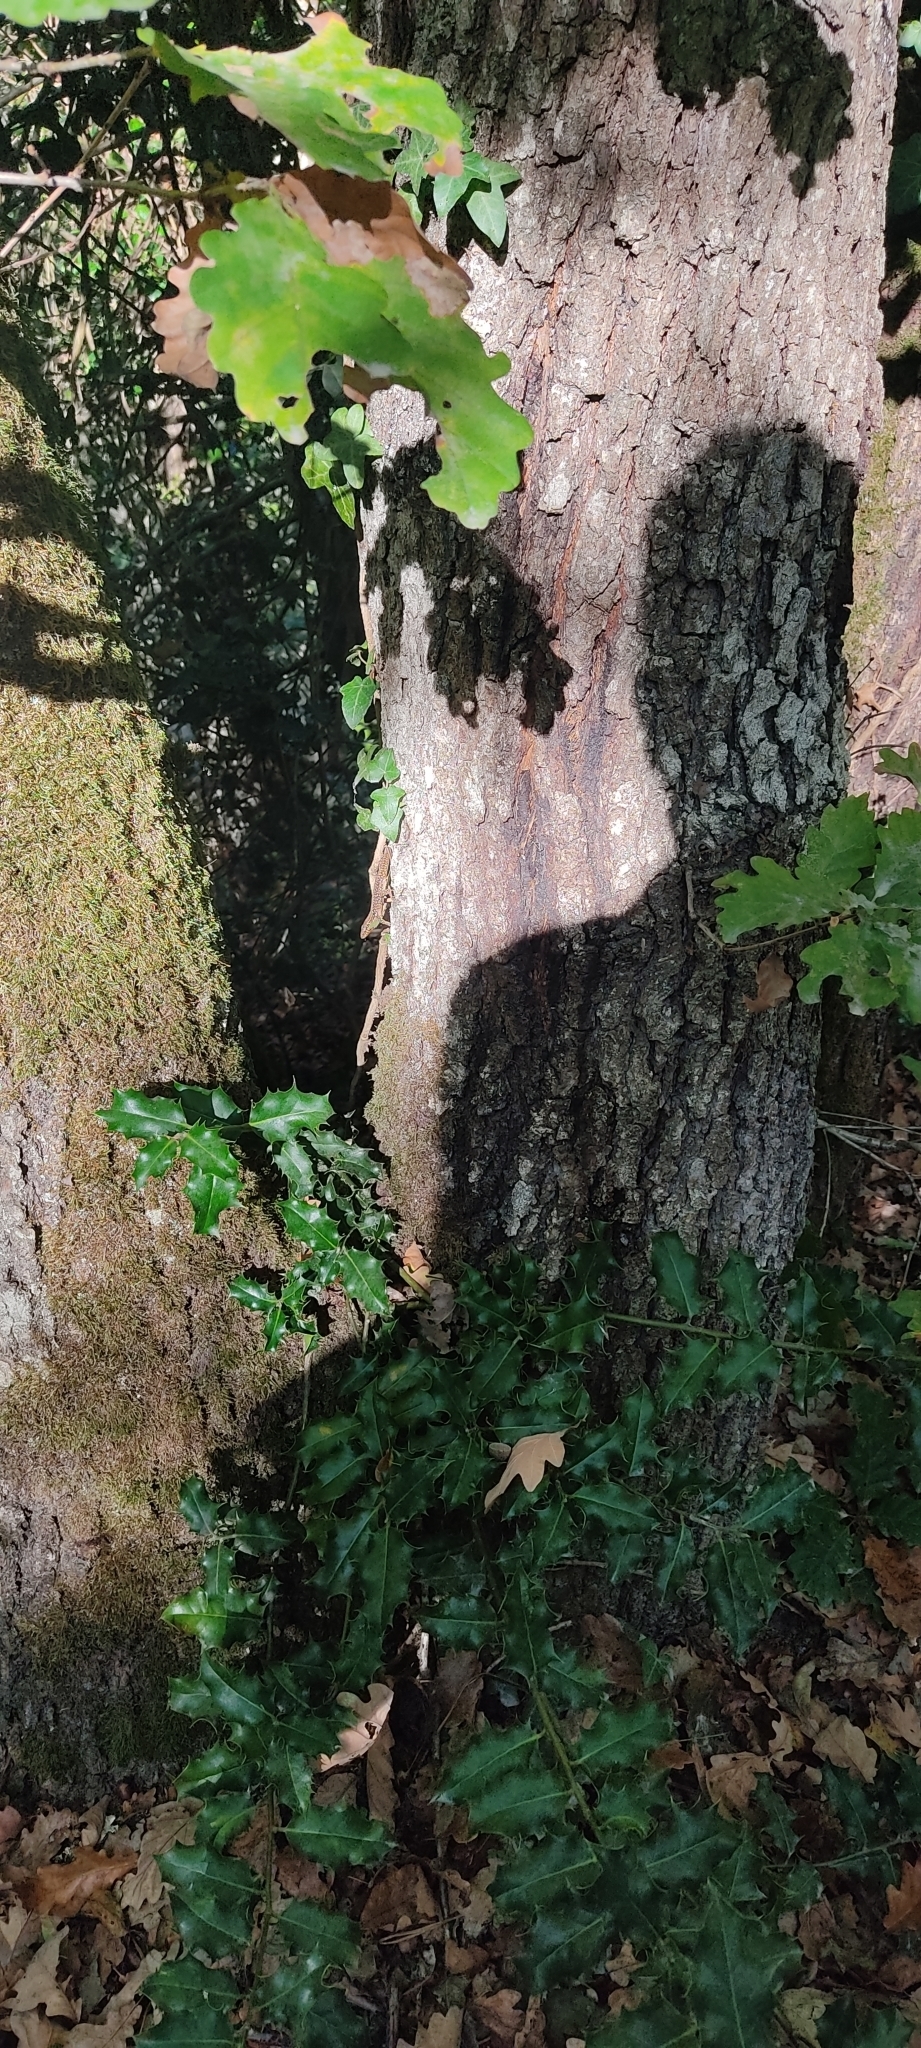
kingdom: Animalia
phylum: Chordata
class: Squamata
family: Lacertidae
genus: Podarcis
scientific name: Podarcis muralis
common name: Common wall lizard
